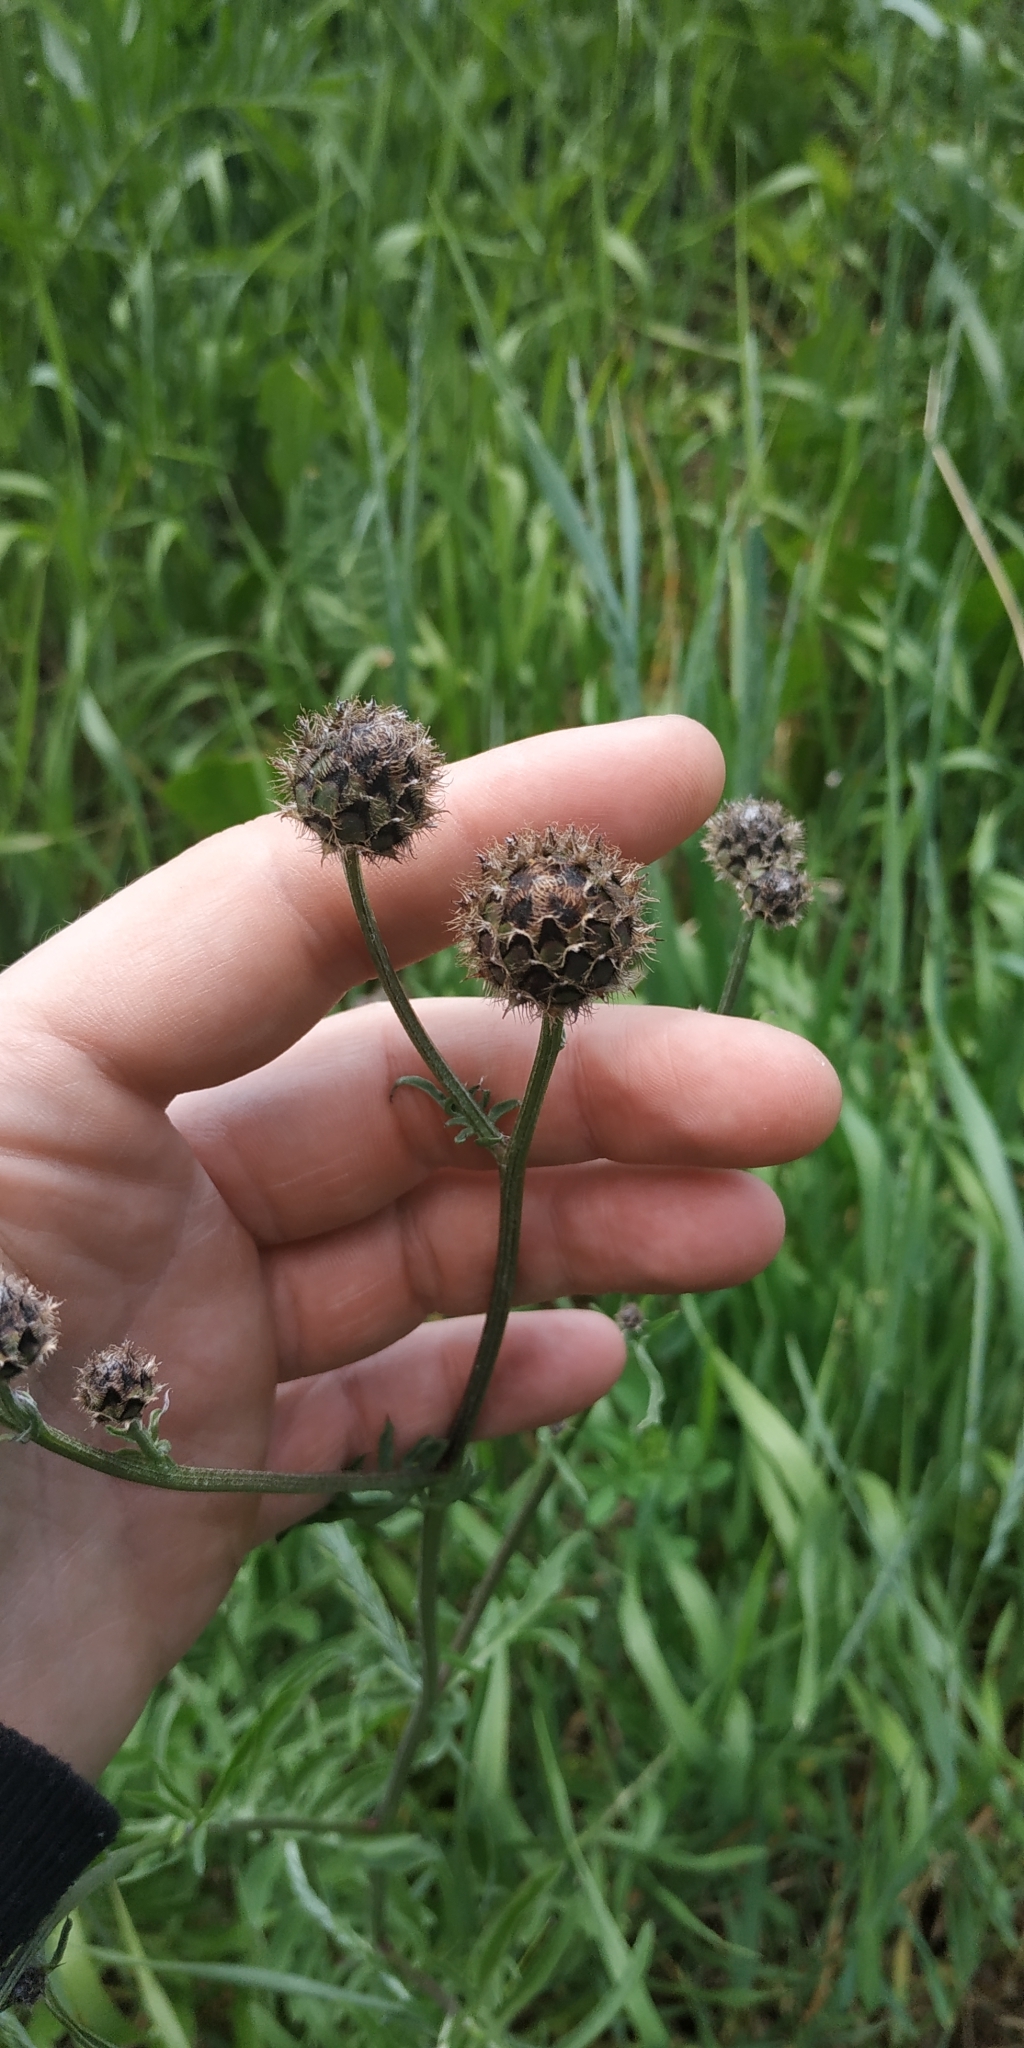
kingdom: Plantae
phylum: Tracheophyta
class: Magnoliopsida
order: Asterales
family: Asteraceae
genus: Centaurea
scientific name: Centaurea scabiosa
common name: Greater knapweed
